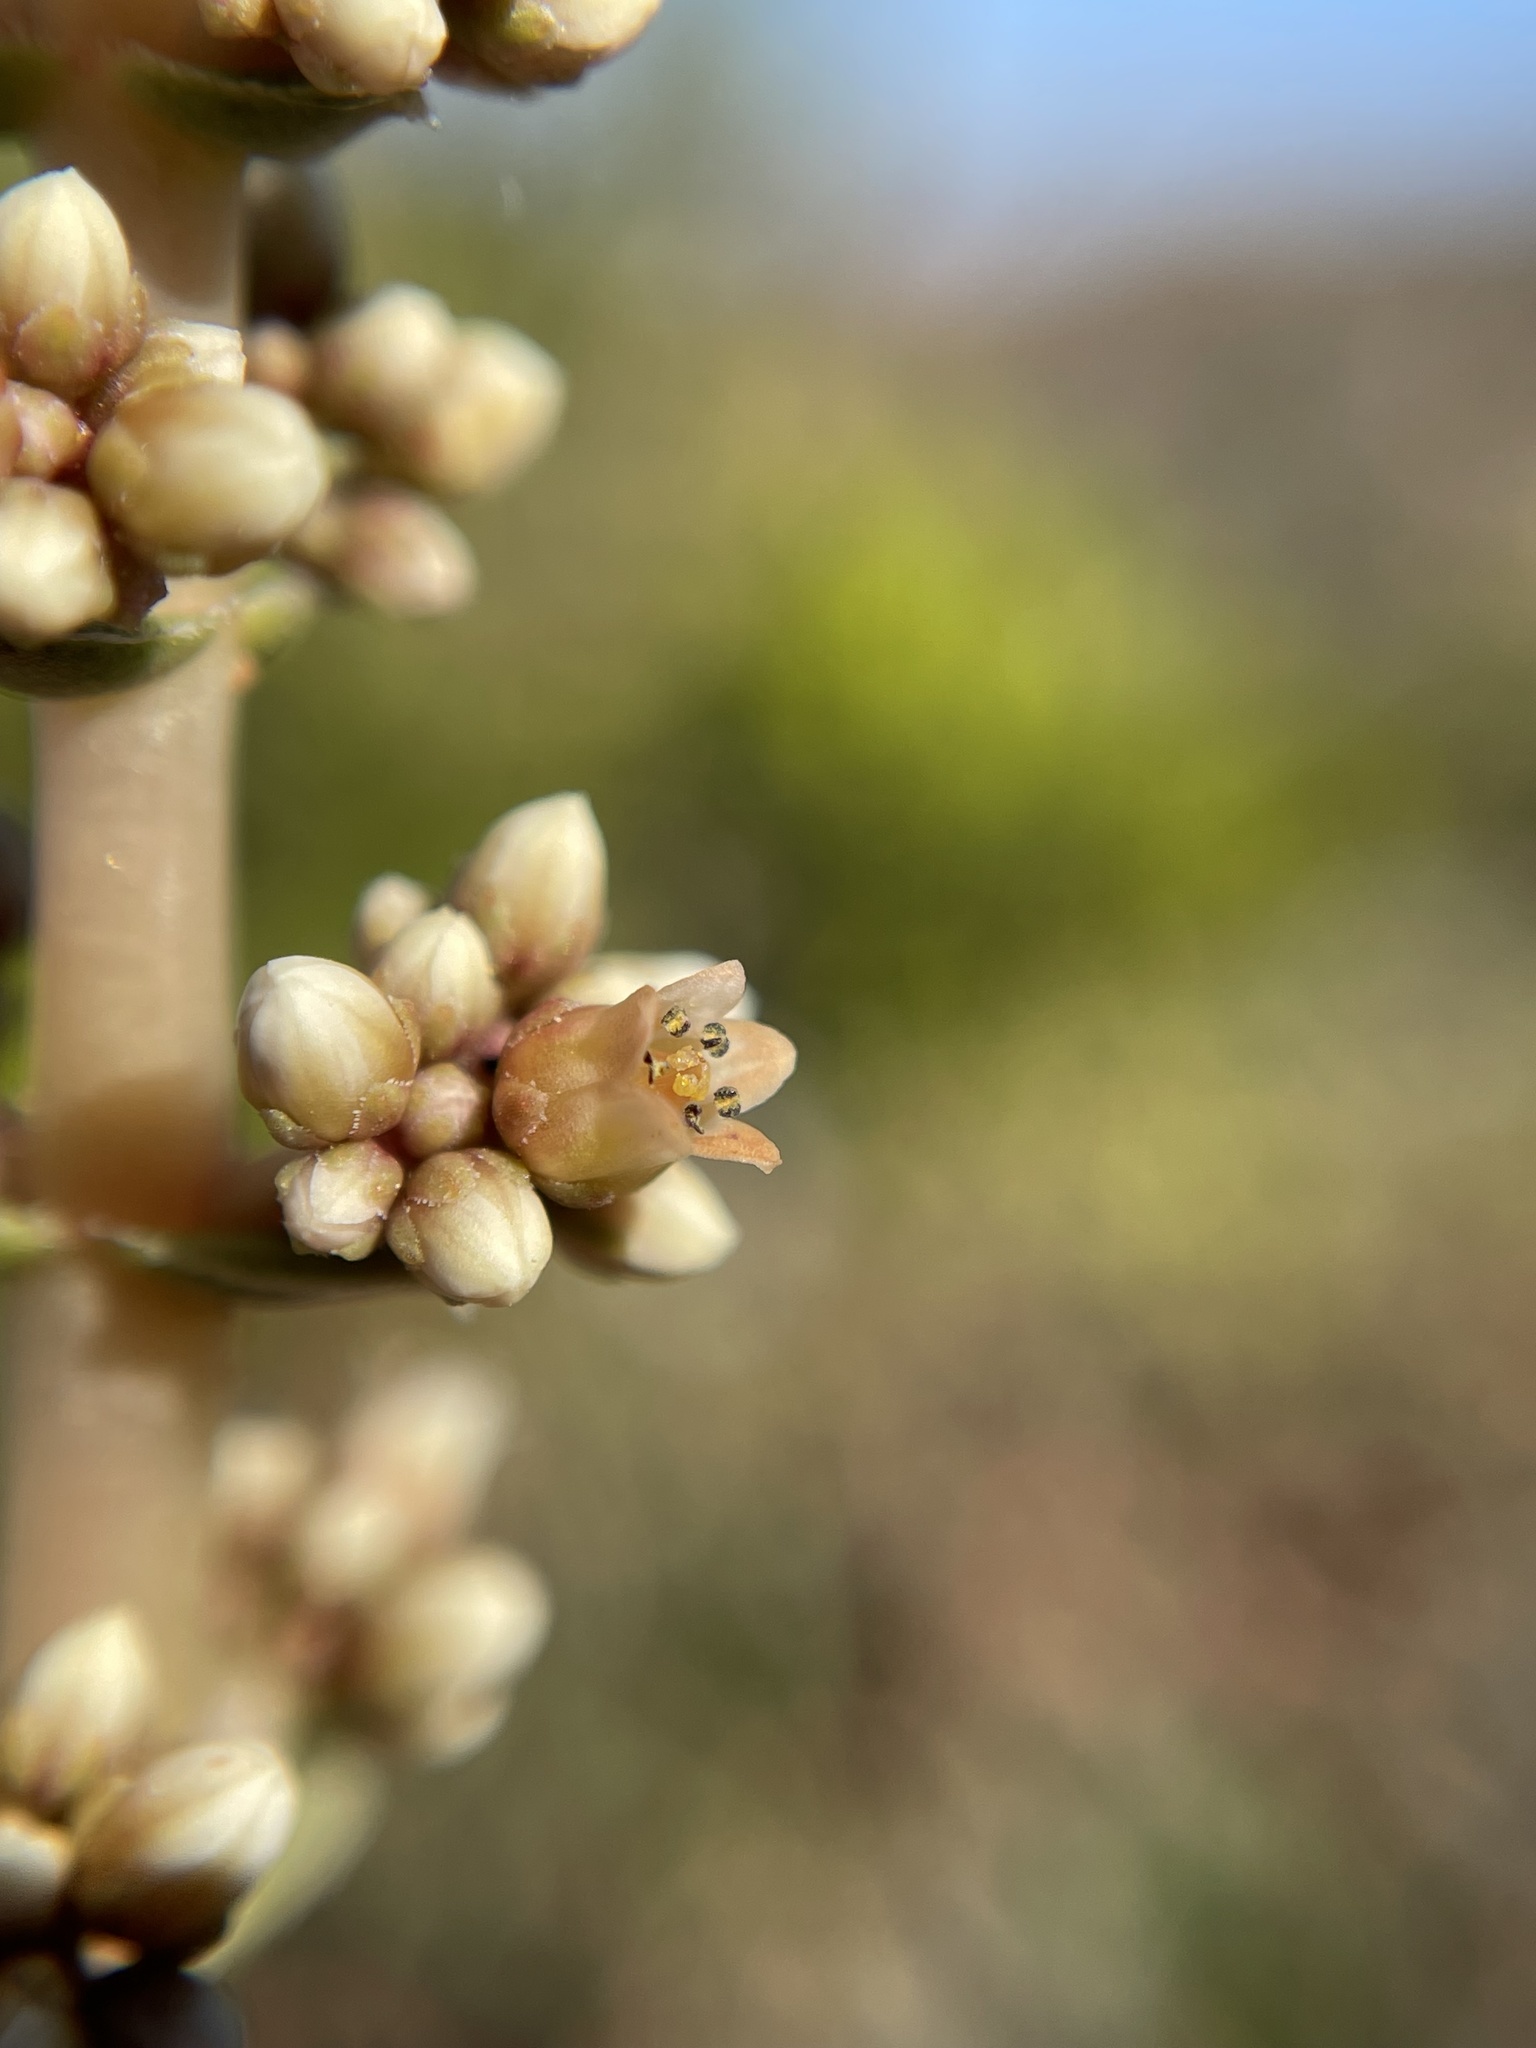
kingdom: Plantae
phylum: Tracheophyta
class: Magnoliopsida
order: Saxifragales
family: Crassulaceae
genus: Crassula
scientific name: Crassula pseudohemisphaerica
